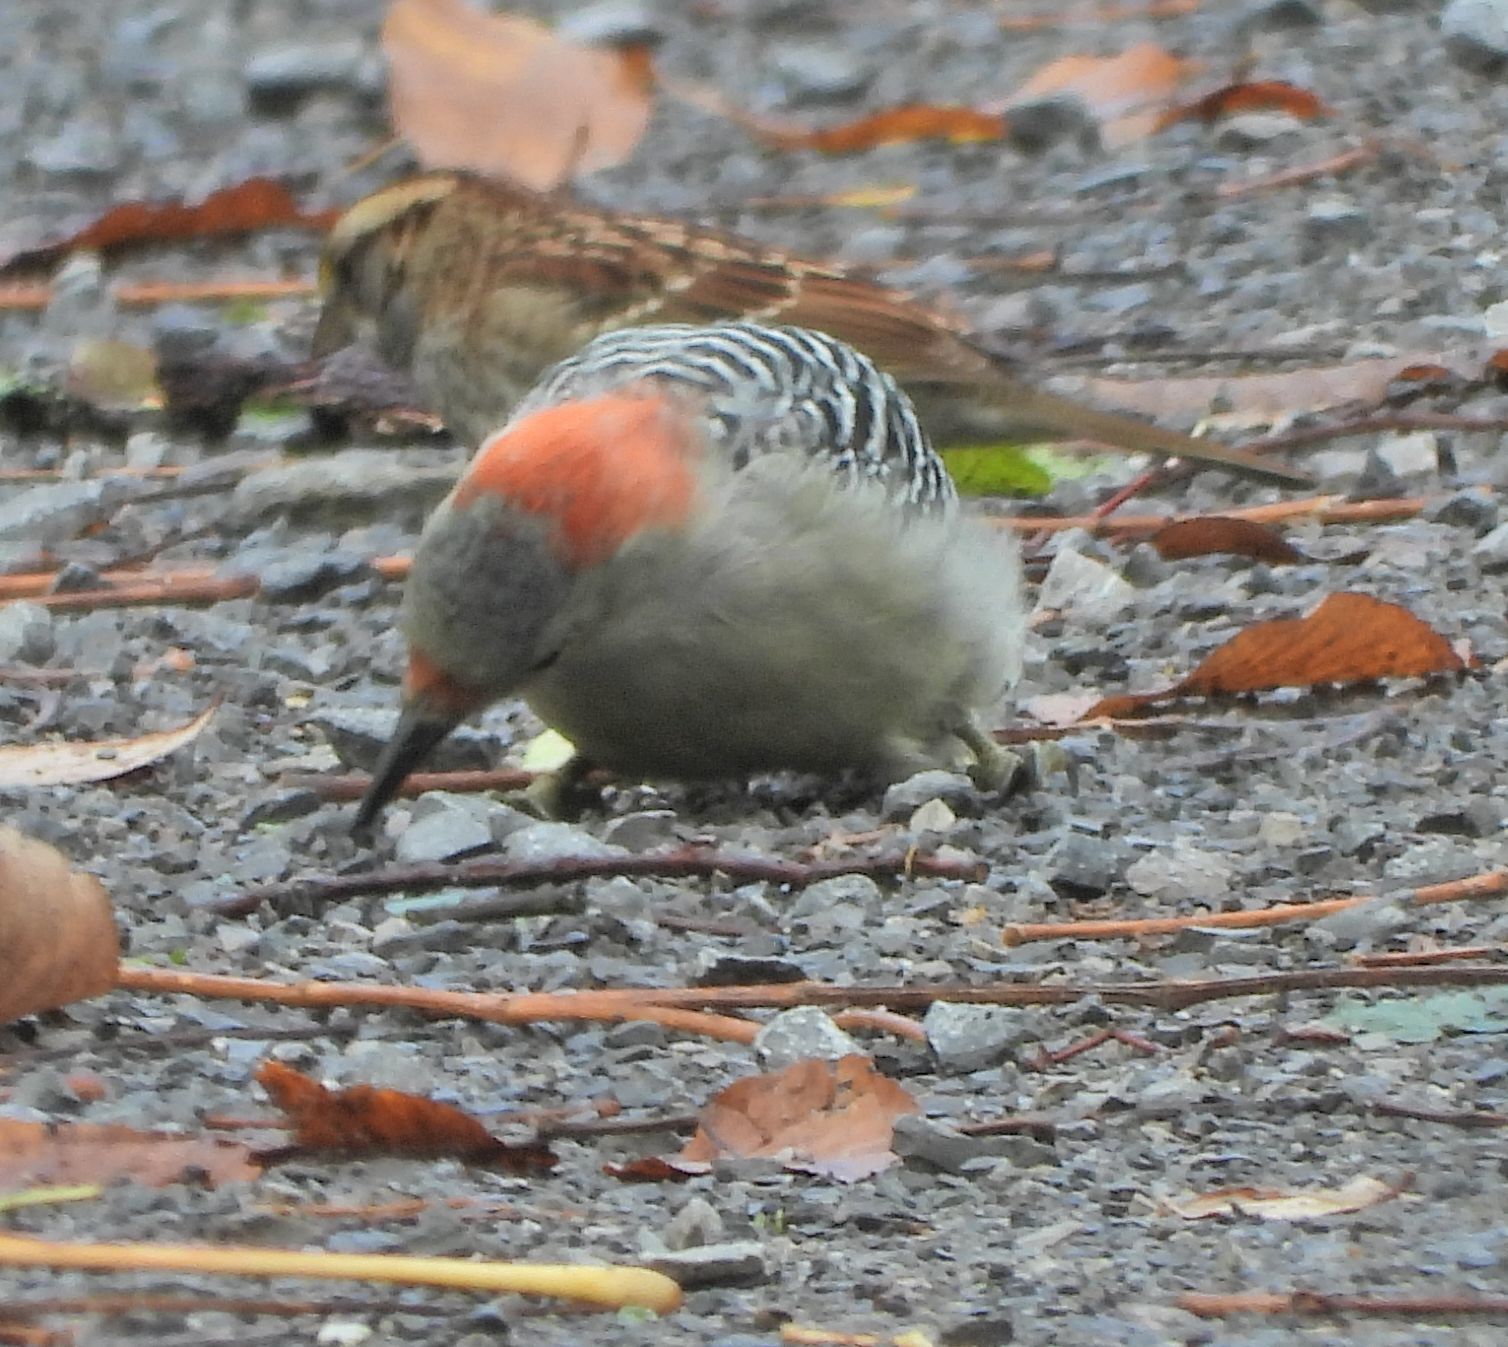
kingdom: Animalia
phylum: Chordata
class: Aves
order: Piciformes
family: Picidae
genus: Melanerpes
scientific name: Melanerpes carolinus
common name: Red-bellied woodpecker
